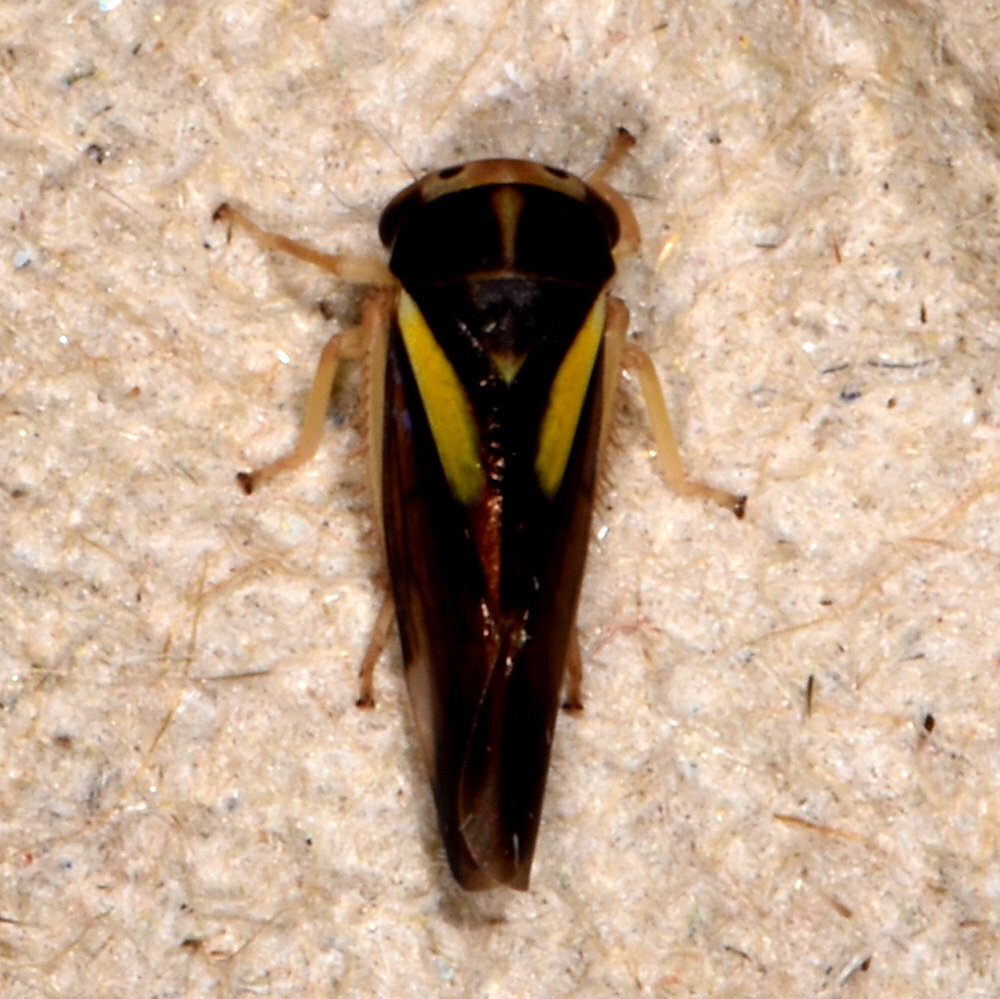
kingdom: Animalia
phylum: Arthropoda
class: Insecta
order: Hemiptera
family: Cicadellidae
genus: Balcanocerus
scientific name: Balcanocerus provancheri
